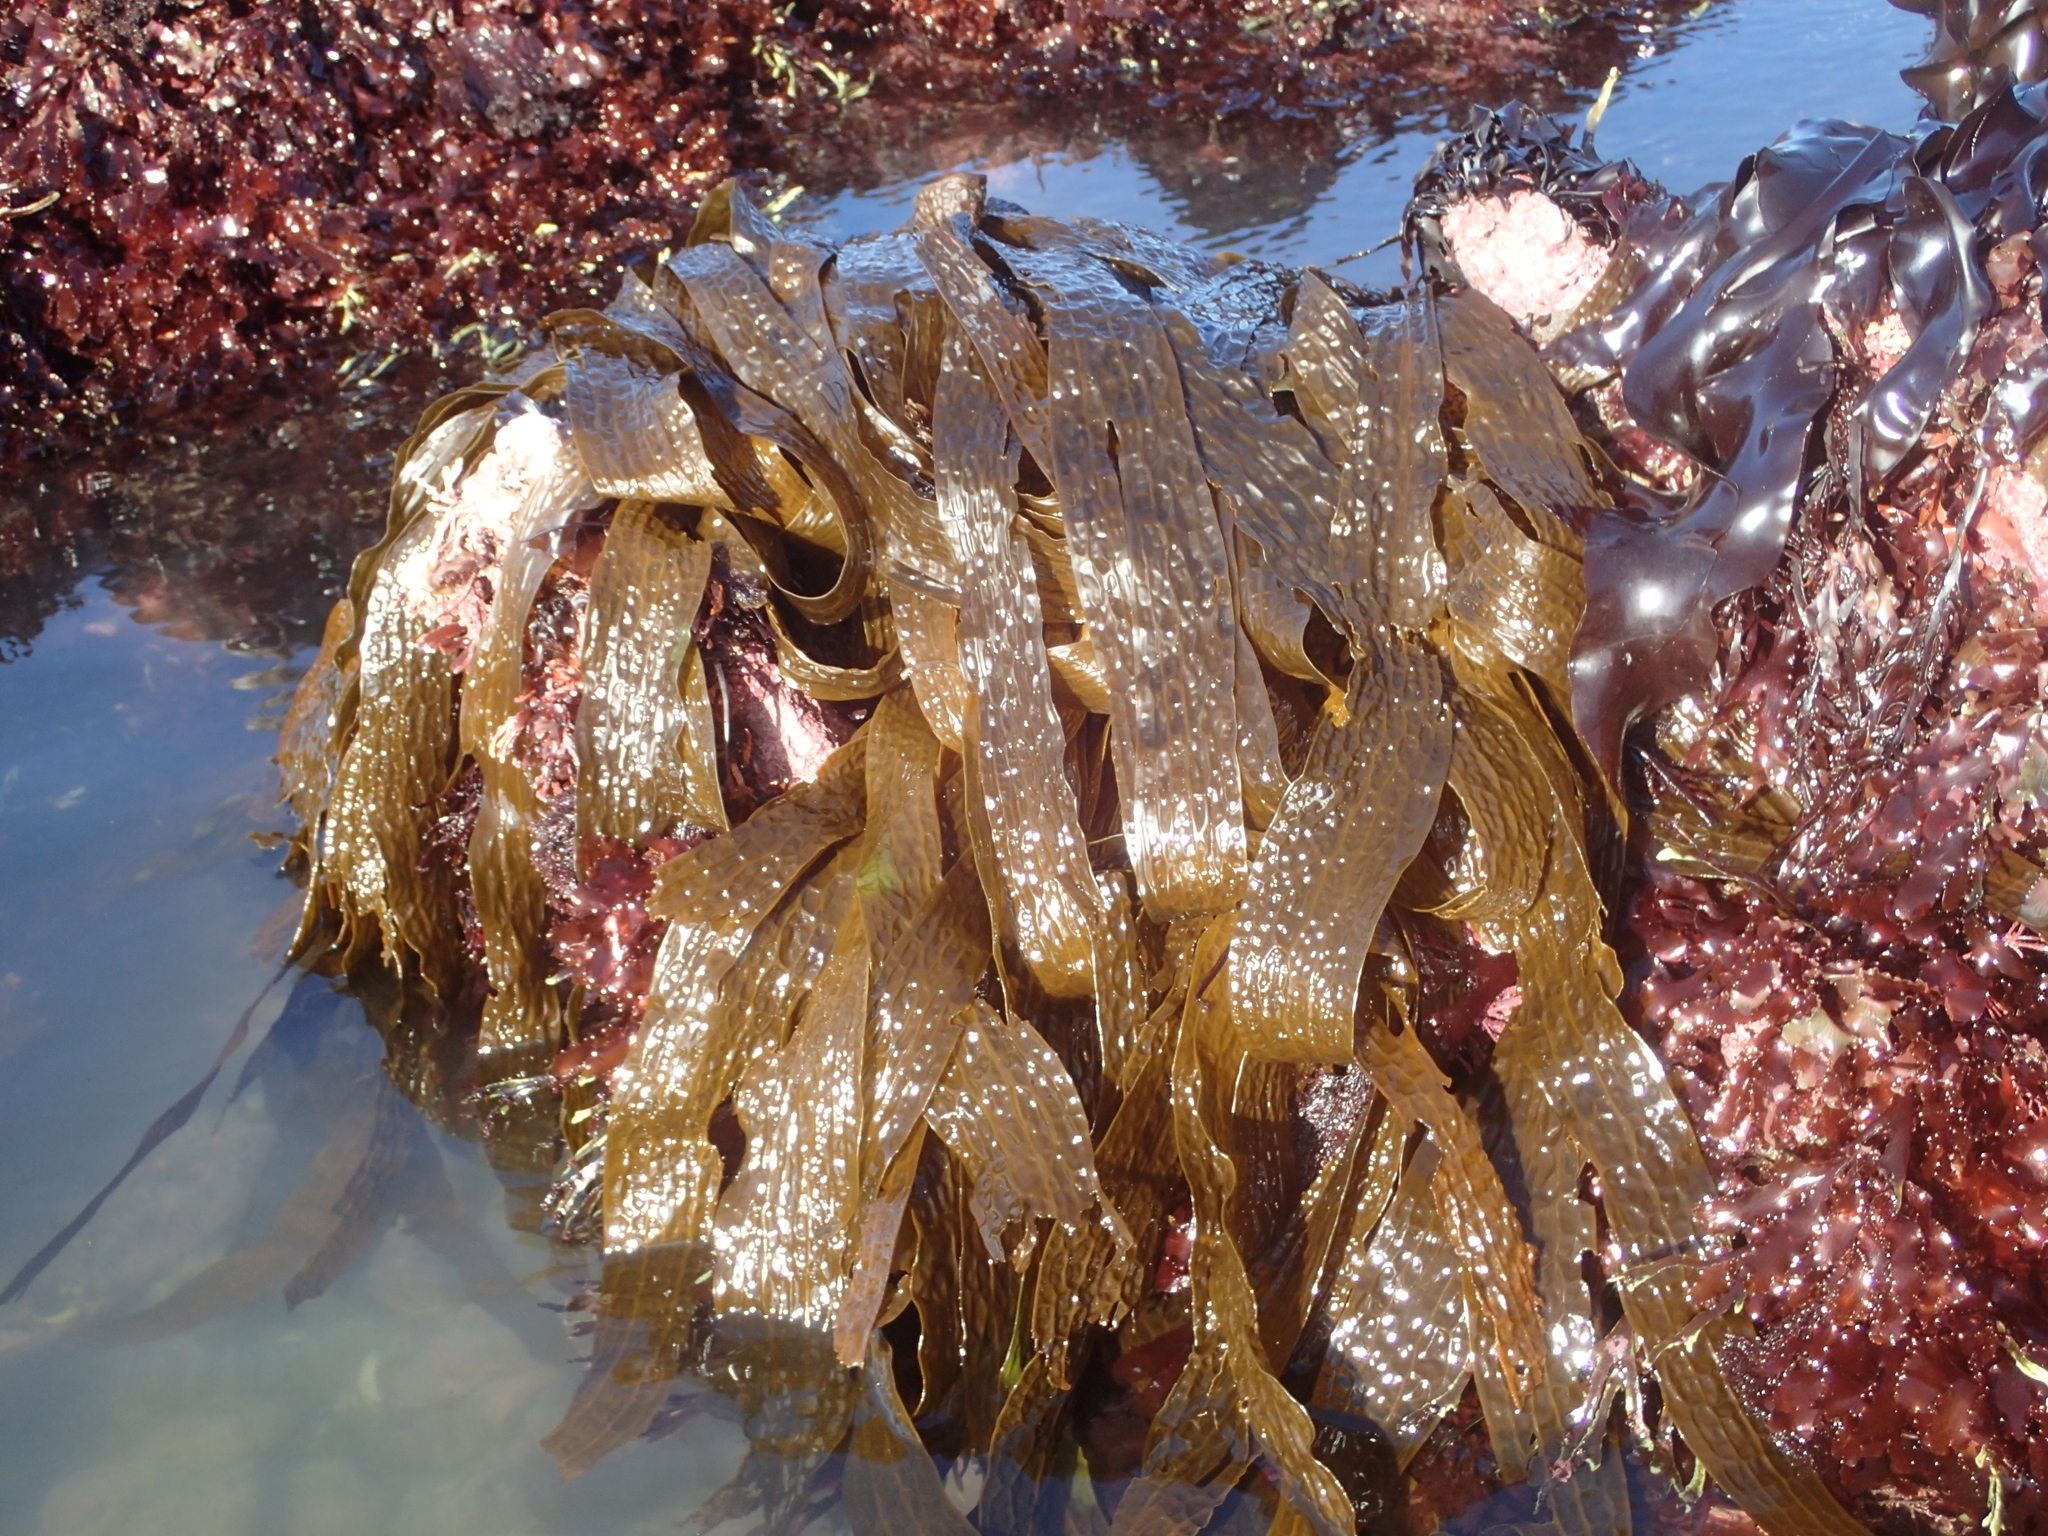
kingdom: Chromista
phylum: Ochrophyta
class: Phaeophyceae
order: Laminariales
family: Costariaceae
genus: Dictyoneurum
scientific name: Dictyoneurum californicum
